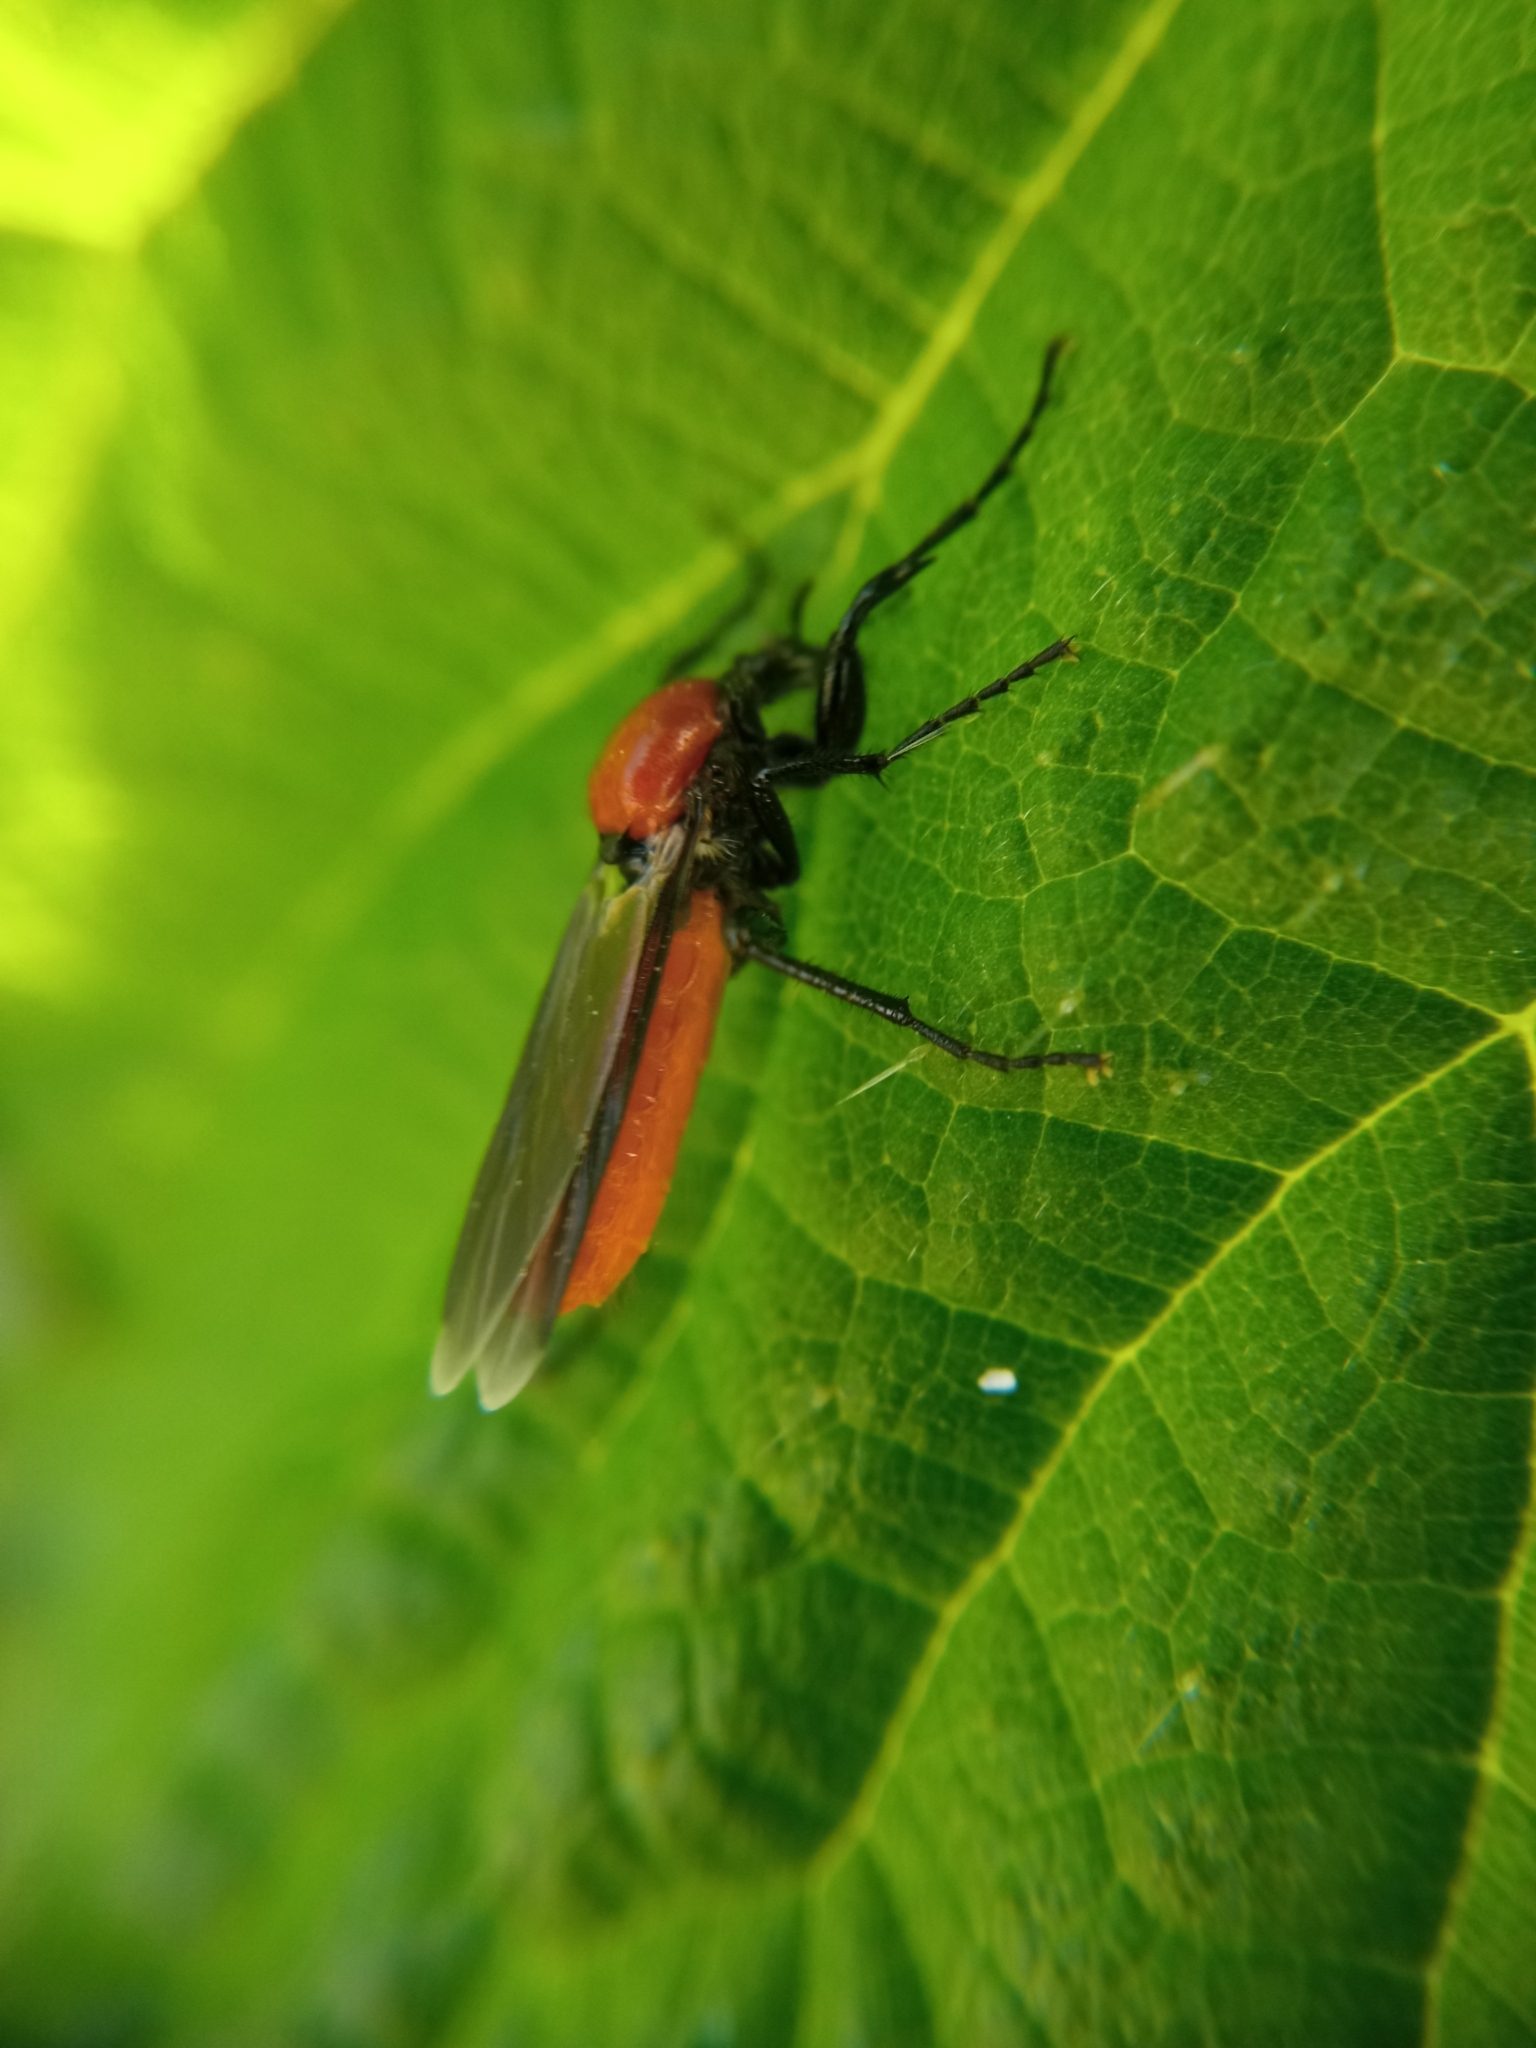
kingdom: Animalia
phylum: Arthropoda
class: Insecta
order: Diptera
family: Bibionidae
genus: Bibio
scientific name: Bibio hortulanus
